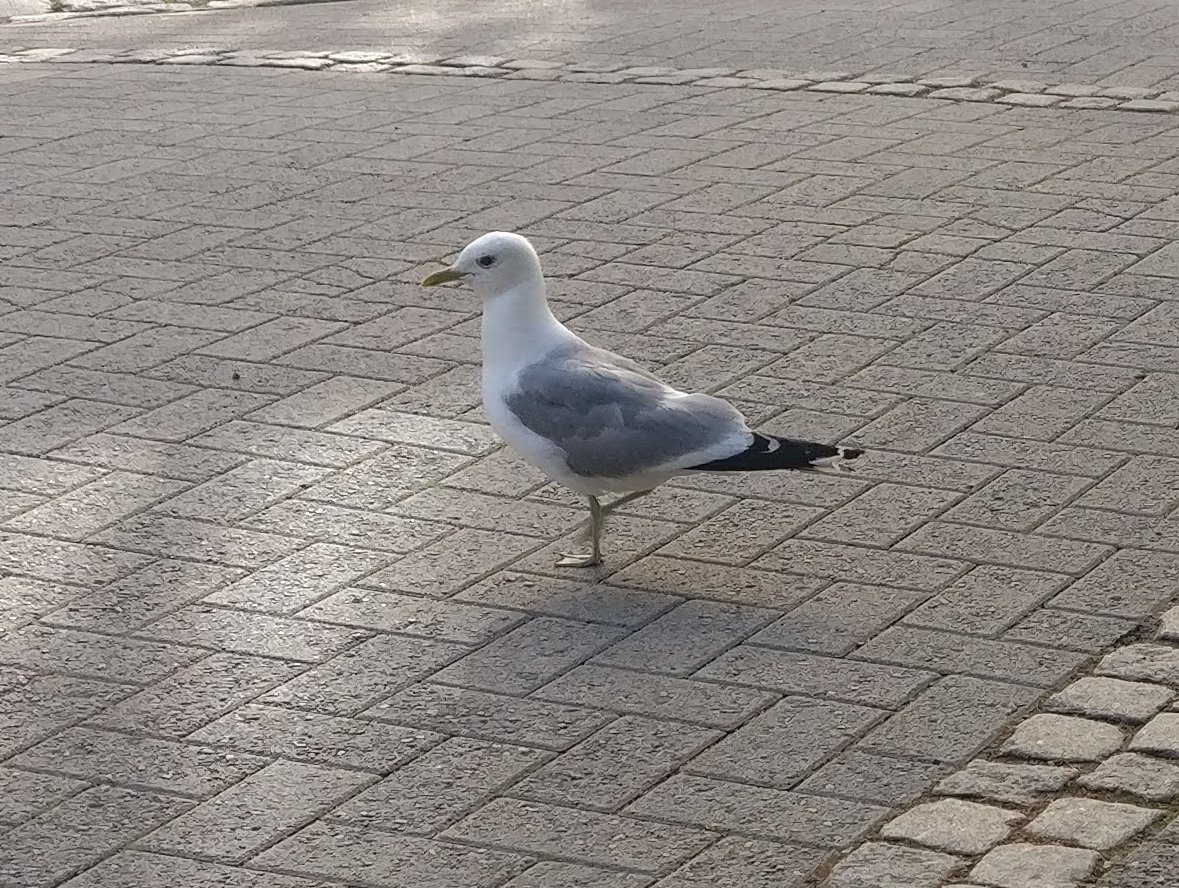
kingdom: Animalia
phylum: Chordata
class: Aves
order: Charadriiformes
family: Laridae
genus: Larus
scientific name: Larus canus
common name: Mew gull
